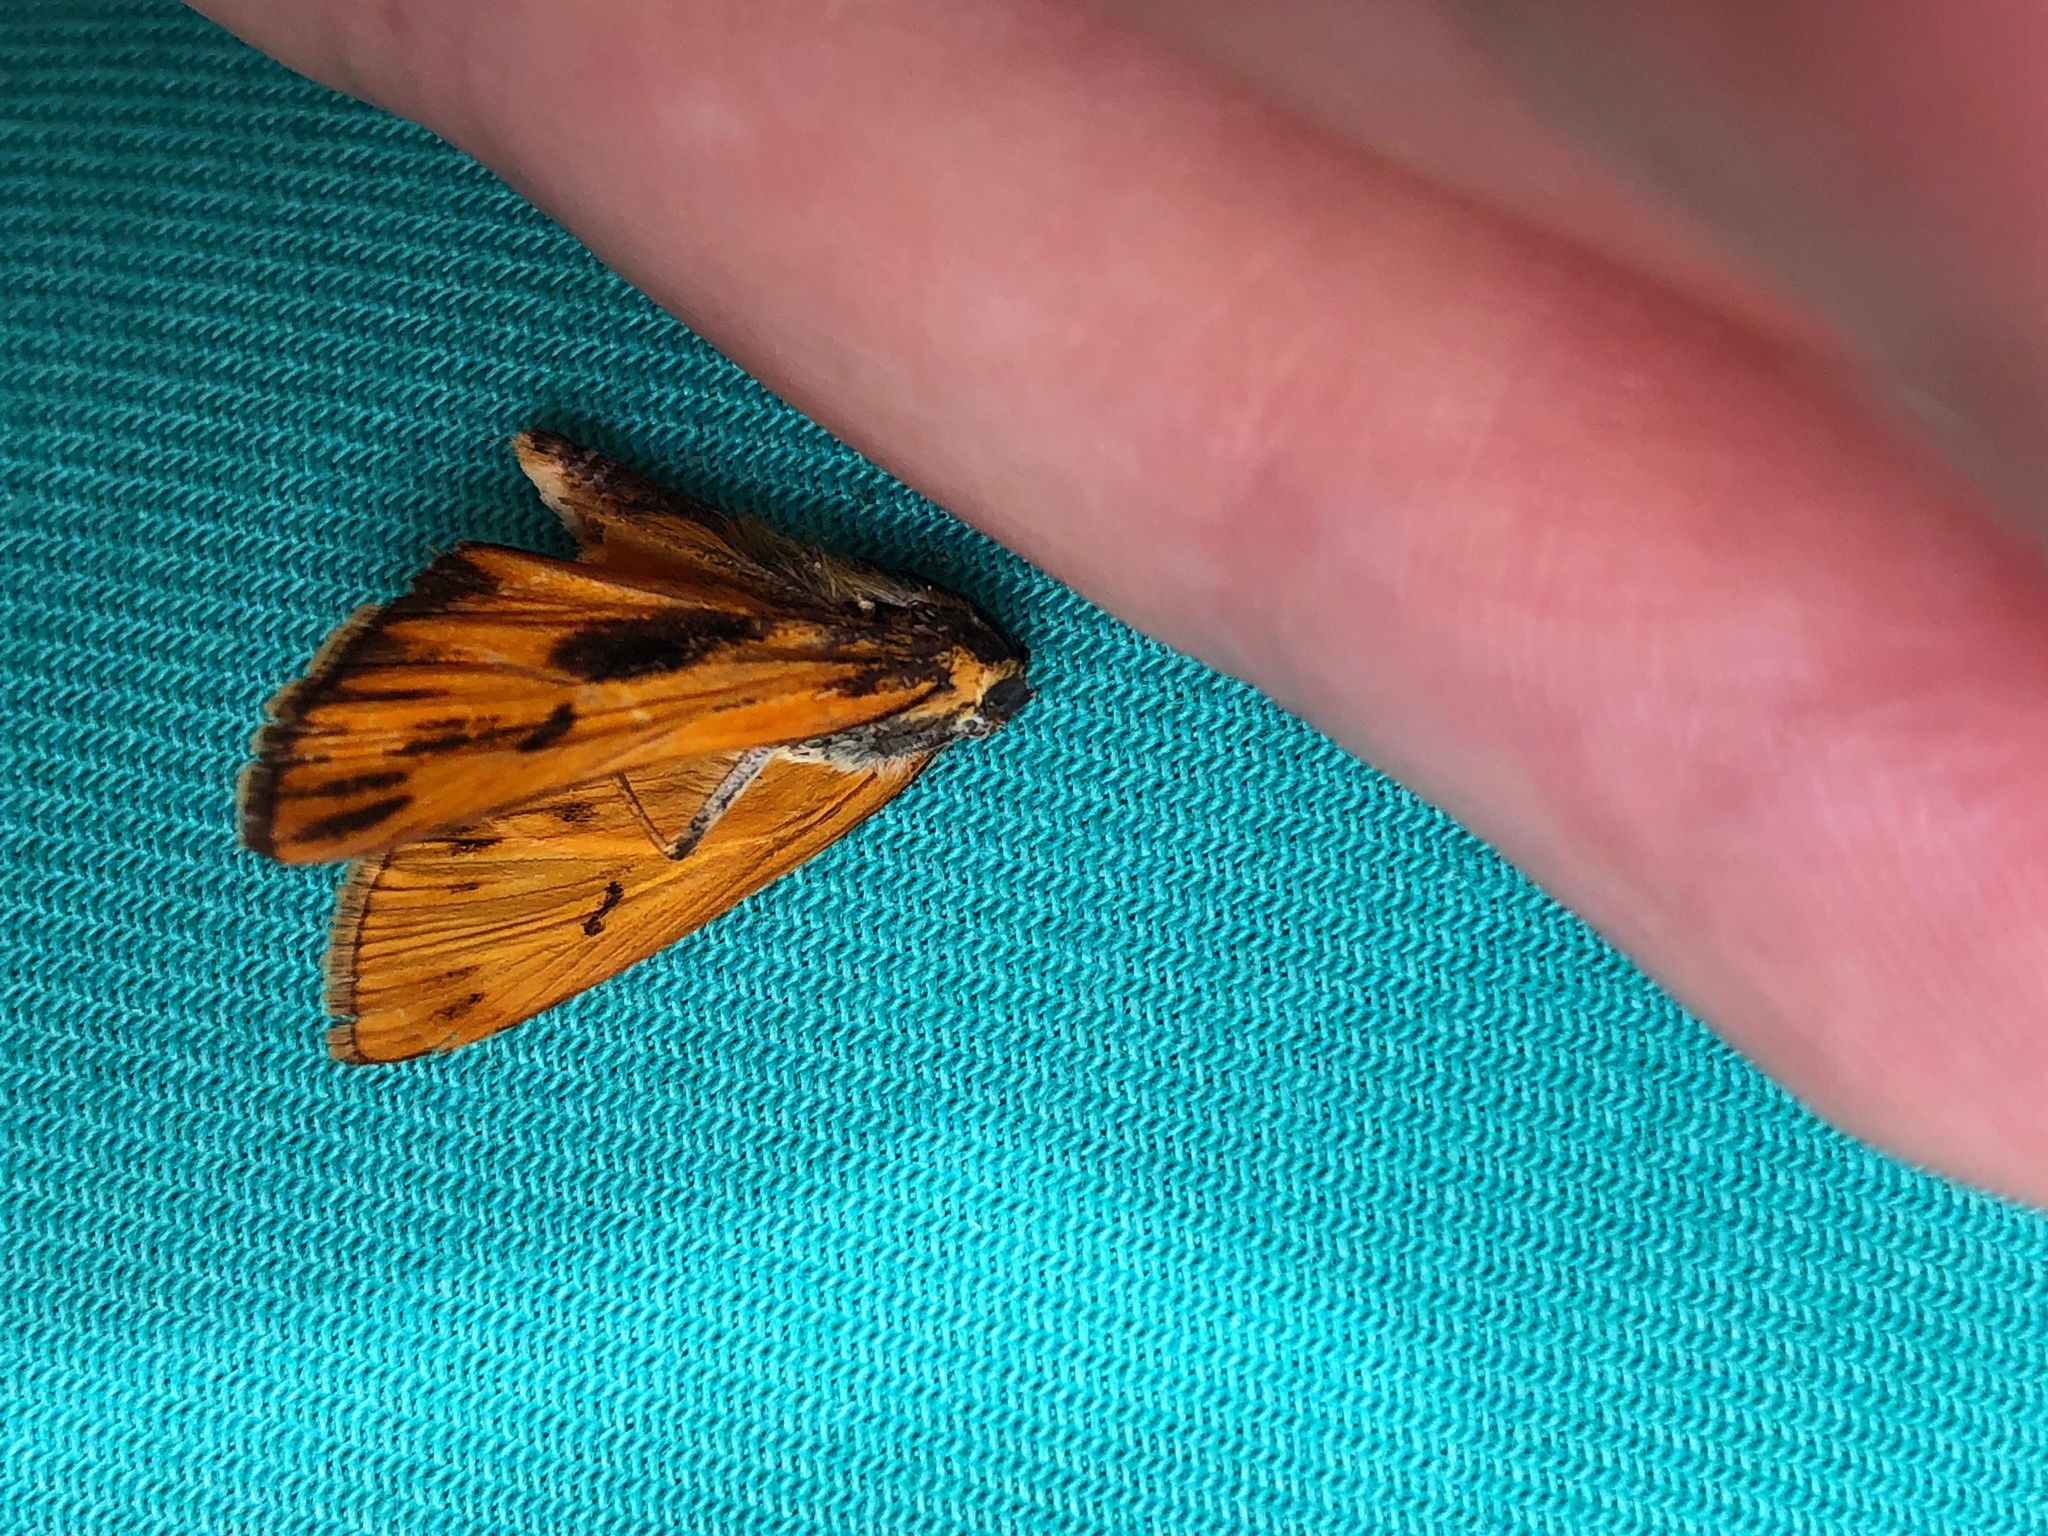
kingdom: Animalia
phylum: Arthropoda
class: Insecta
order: Lepidoptera
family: Hesperiidae
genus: Hylephila
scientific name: Hylephila phyleus
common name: Fiery skipper
